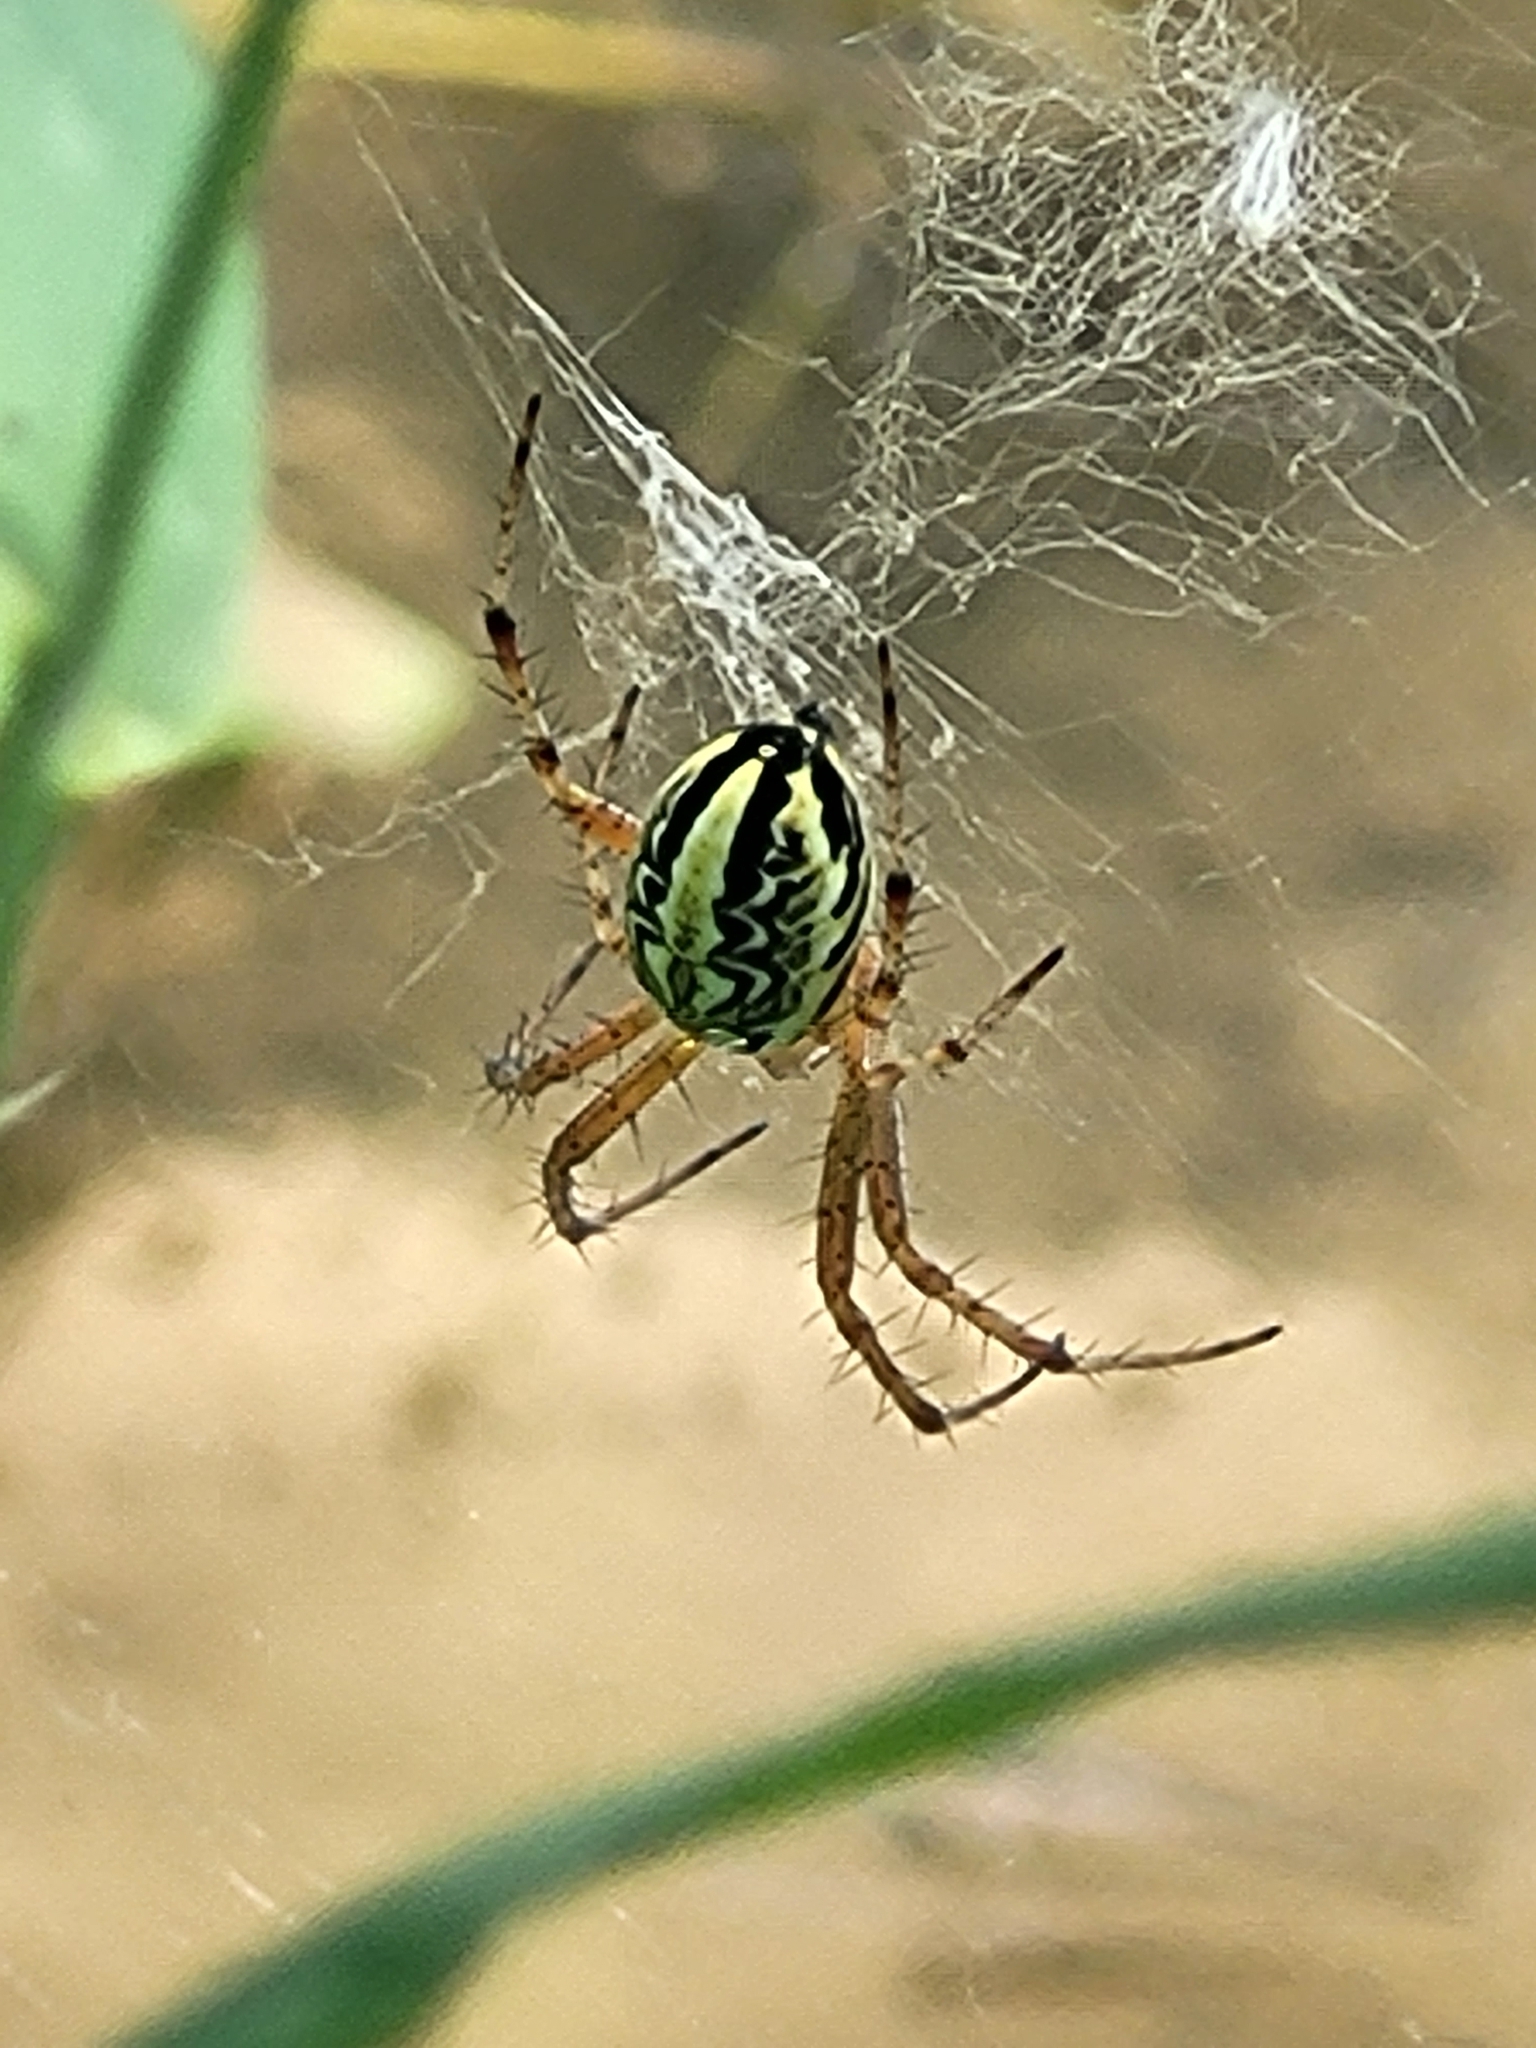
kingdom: Animalia
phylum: Arthropoda
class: Arachnida
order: Araneae
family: Araneidae
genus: Neoscona
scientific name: Neoscona adianta
